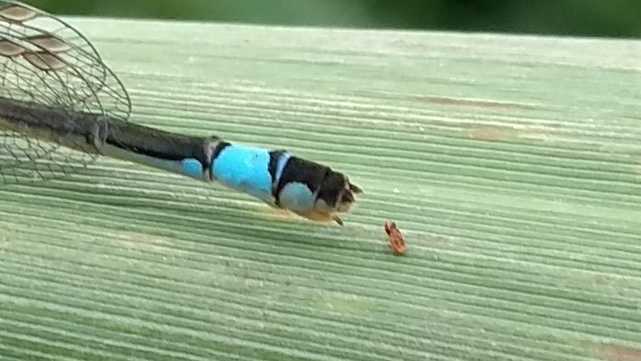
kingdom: Animalia
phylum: Arthropoda
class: Insecta
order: Odonata
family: Coenagrionidae
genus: Ischnura
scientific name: Ischnura elegans
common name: Blue-tailed damselfly
